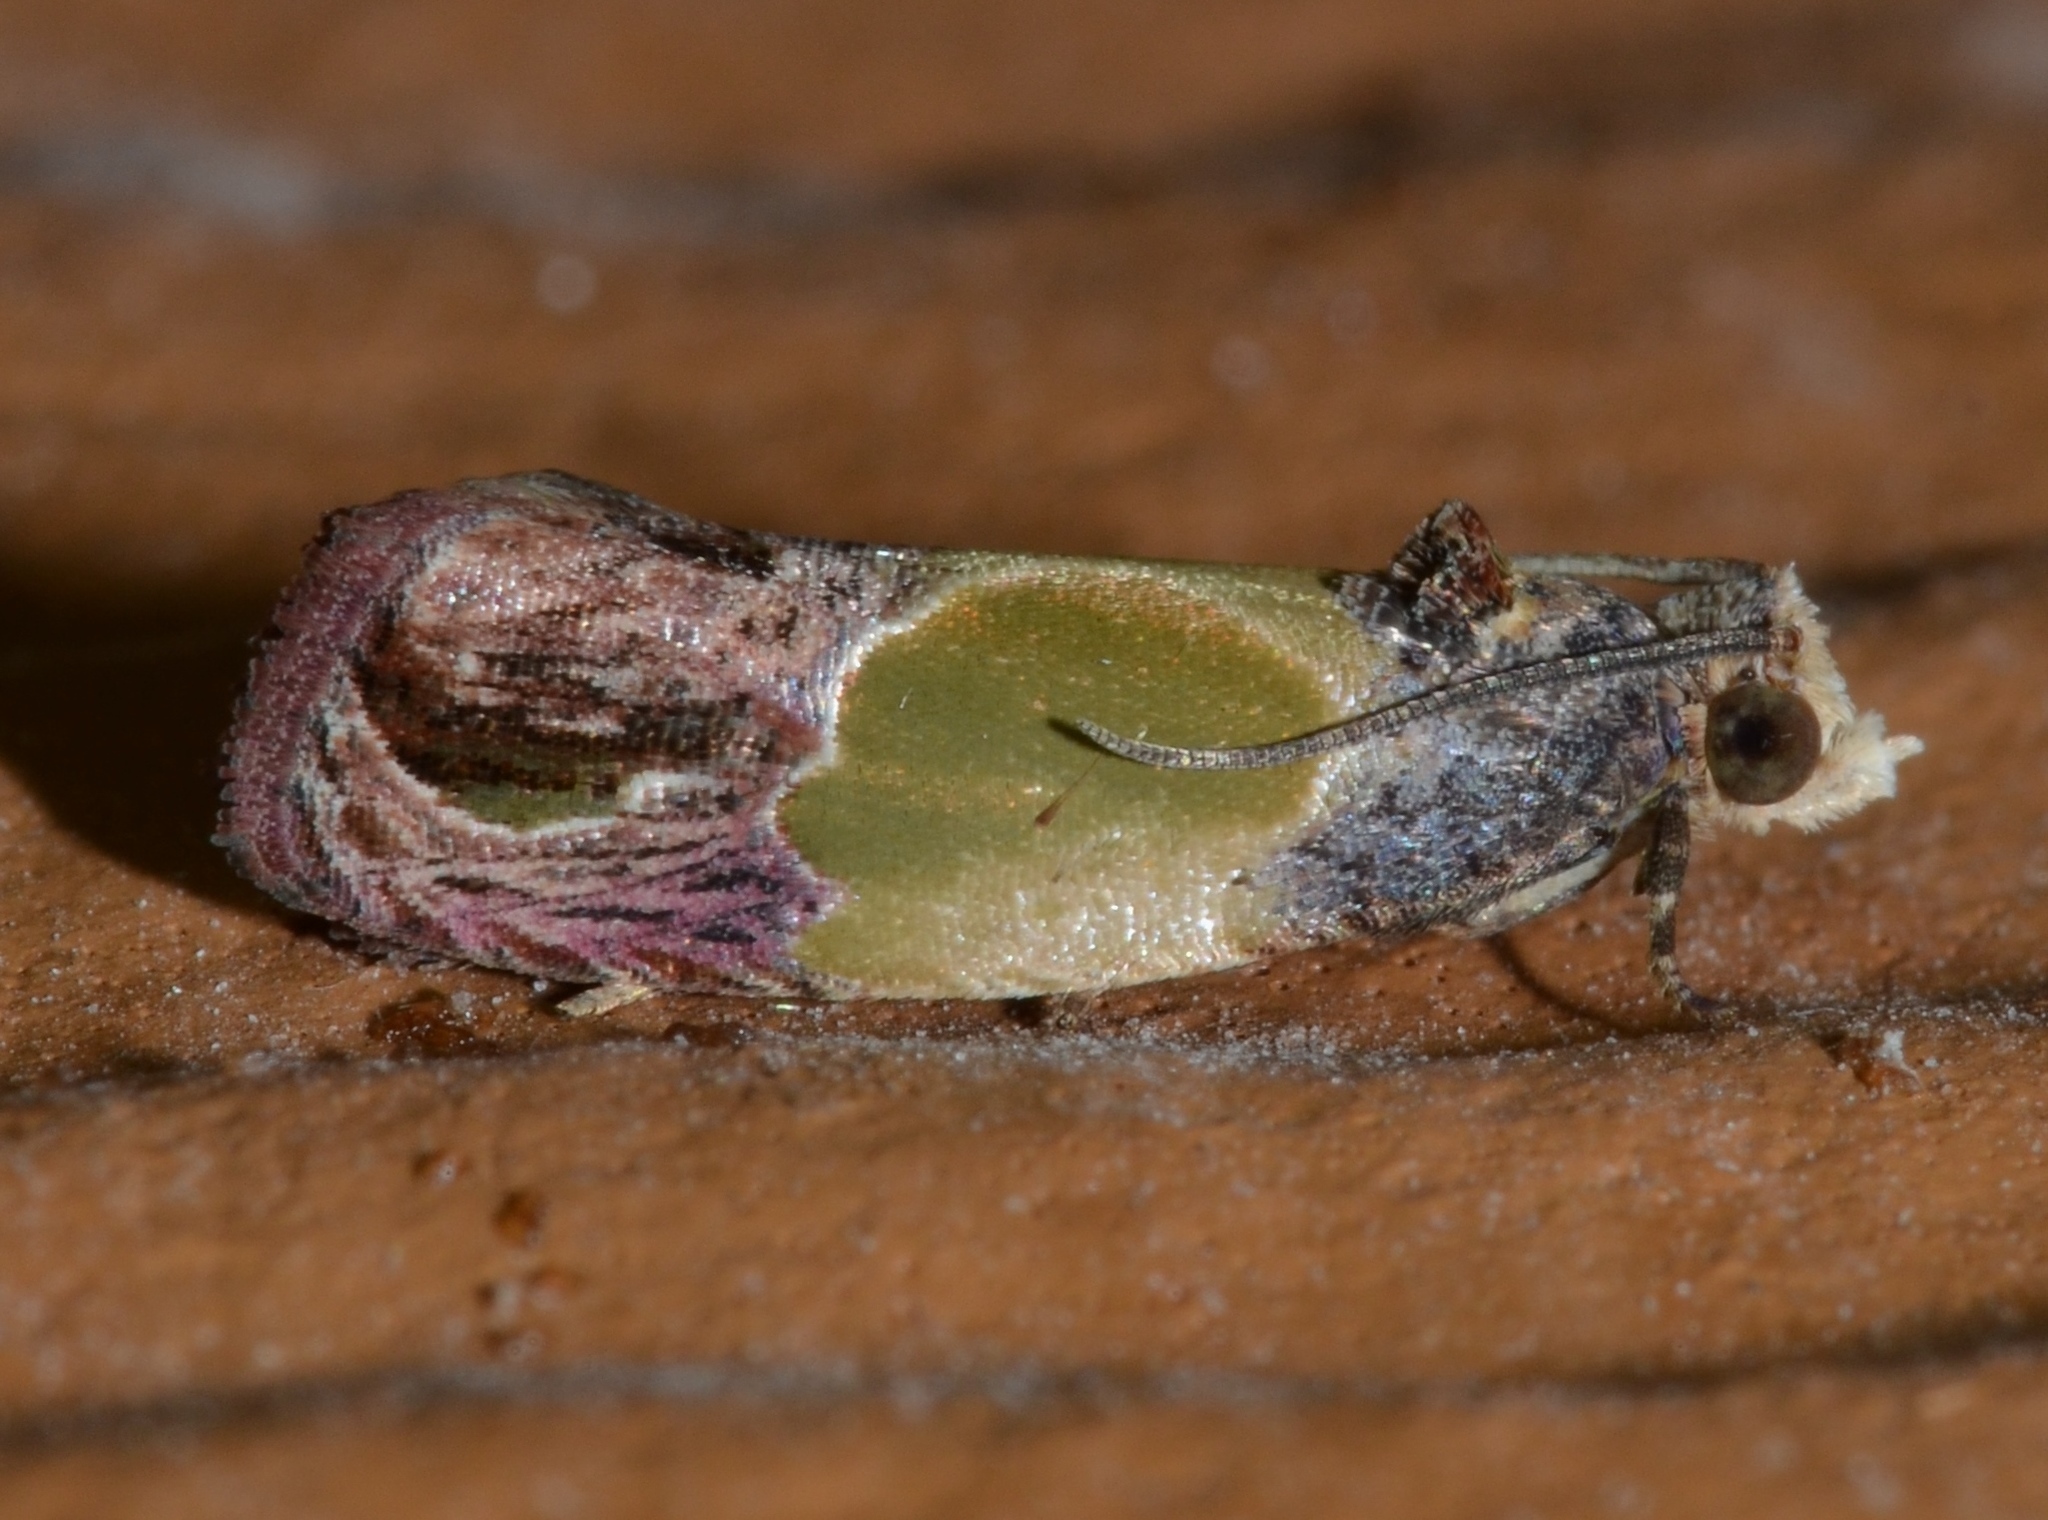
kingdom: Animalia
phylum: Arthropoda
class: Insecta
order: Lepidoptera
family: Tortricidae
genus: Eumarozia
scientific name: Eumarozia malachitana
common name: Sculptured moth
